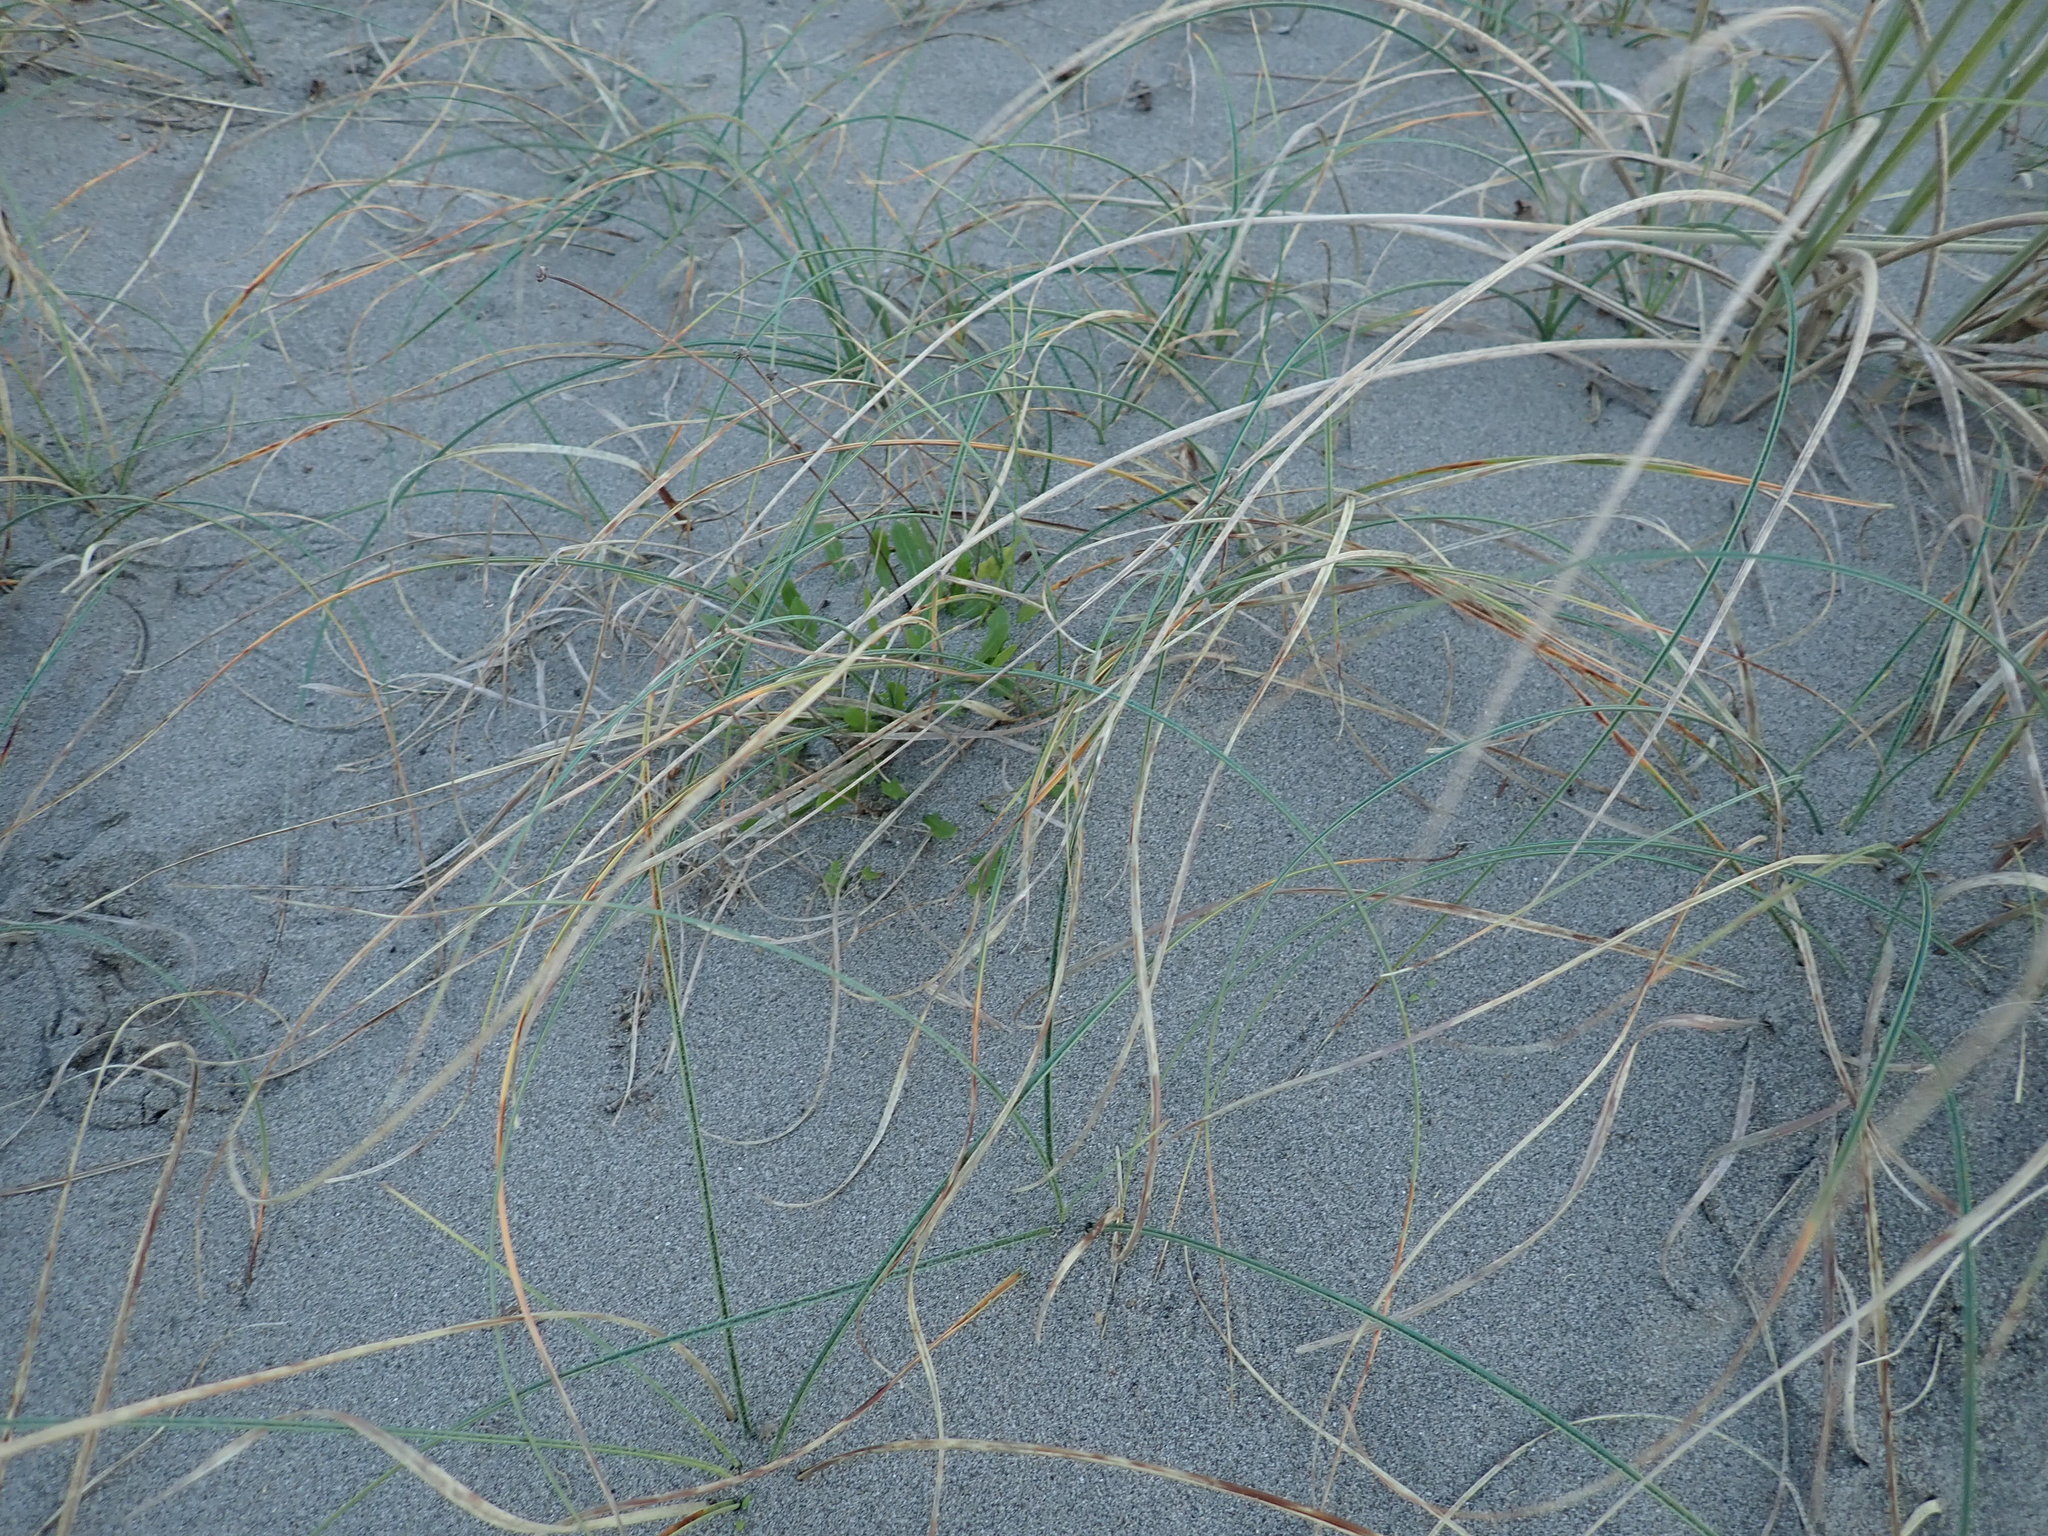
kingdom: Plantae
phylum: Tracheophyta
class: Liliopsida
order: Poales
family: Cyperaceae
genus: Carex
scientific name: Carex pumila
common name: Dwarf sedge
